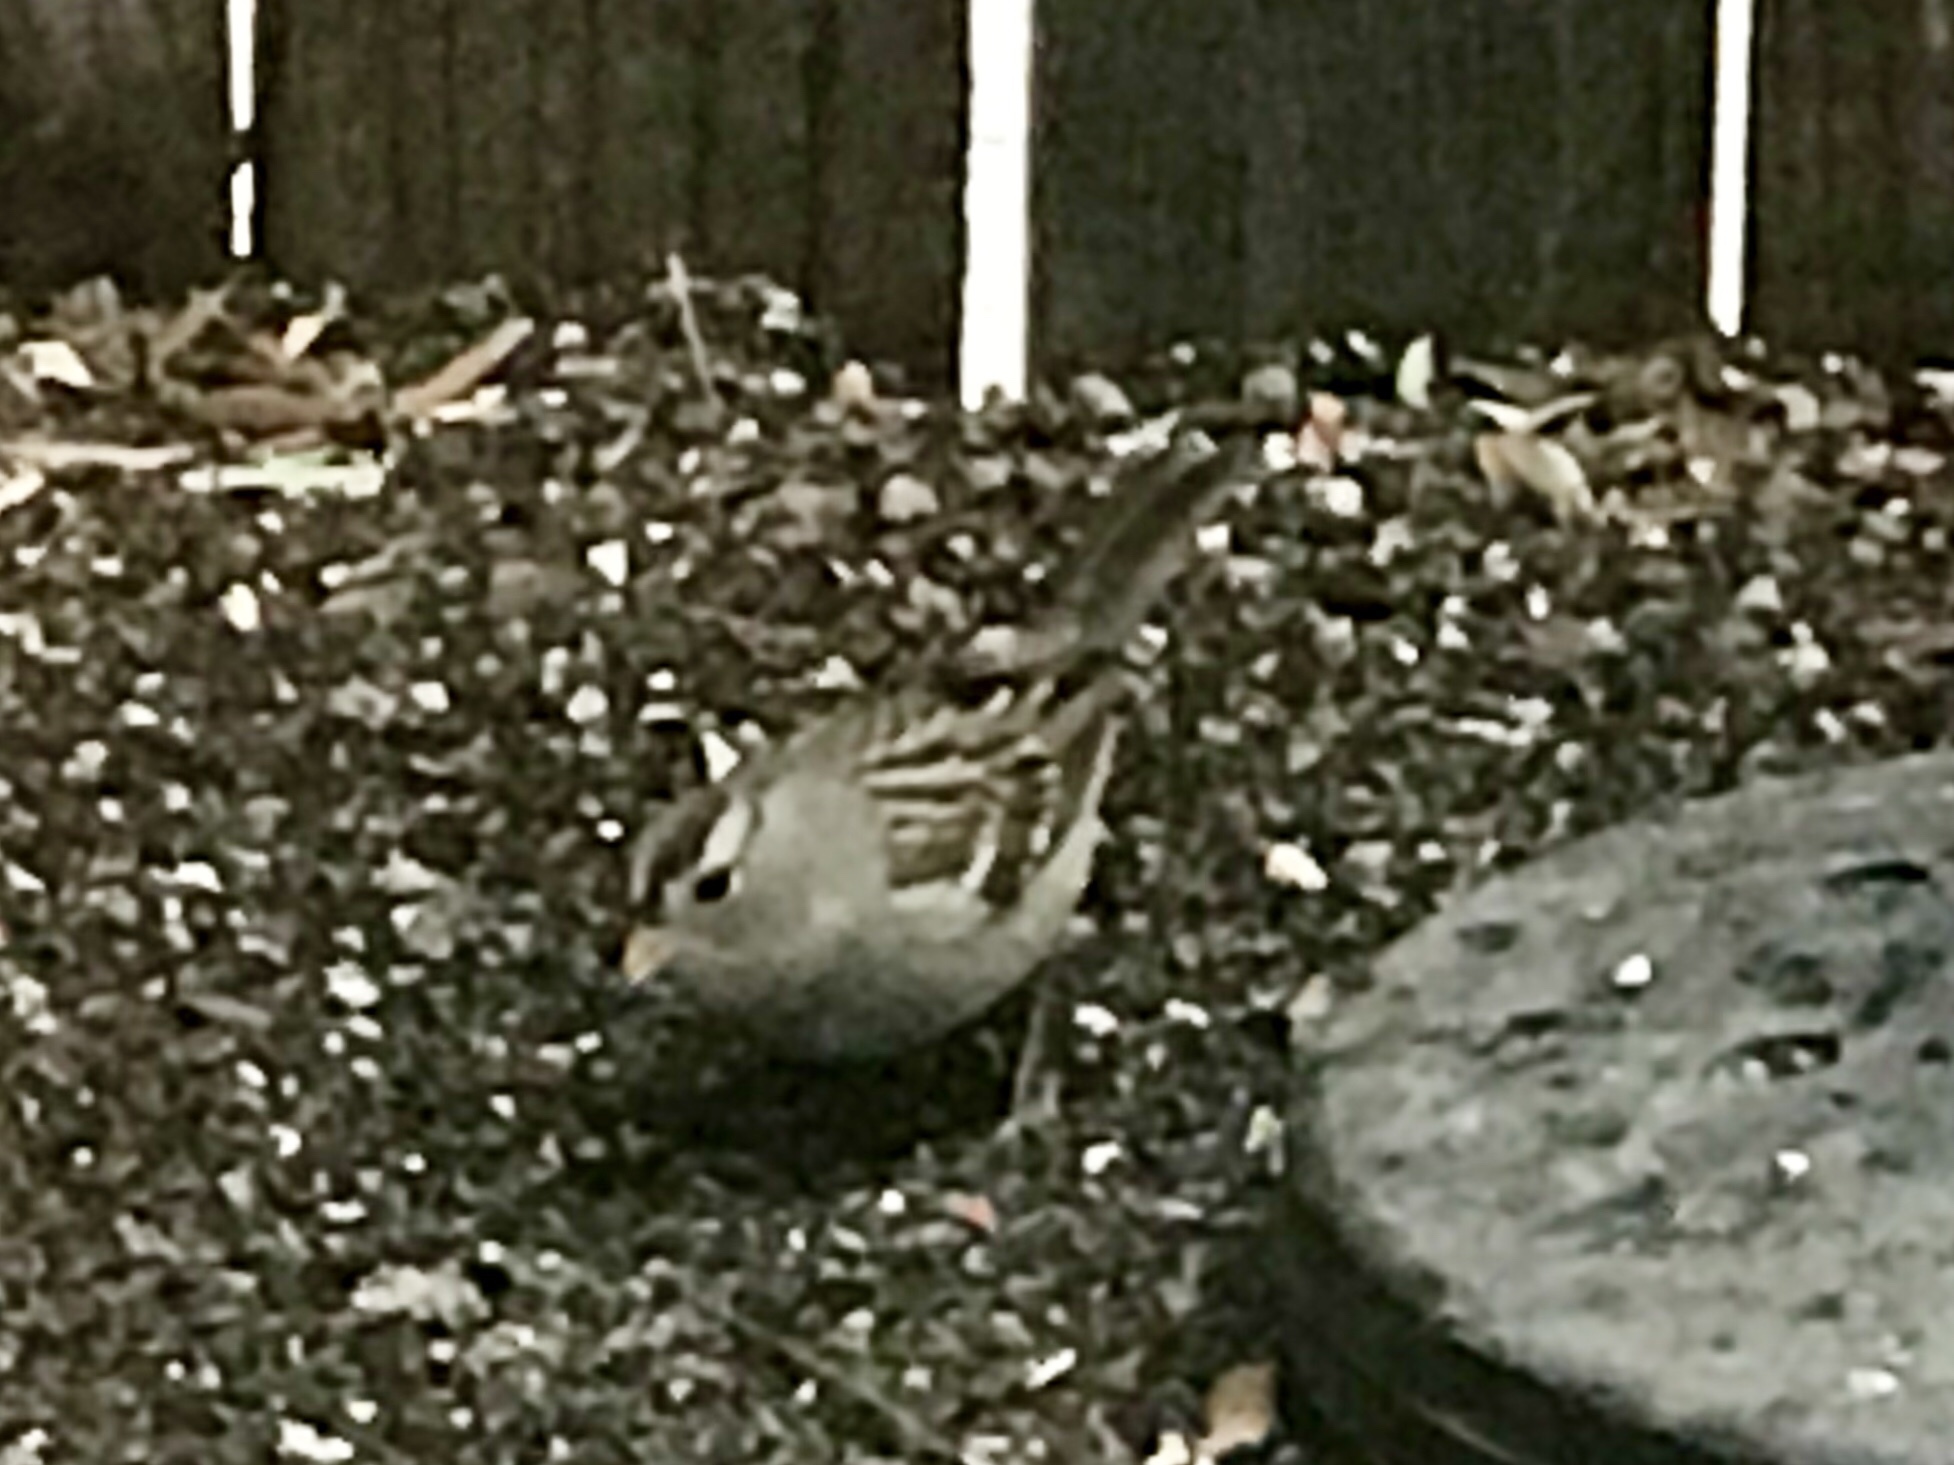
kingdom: Animalia
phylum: Chordata
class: Aves
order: Passeriformes
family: Passerellidae
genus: Zonotrichia
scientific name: Zonotrichia leucophrys
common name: White-crowned sparrow
